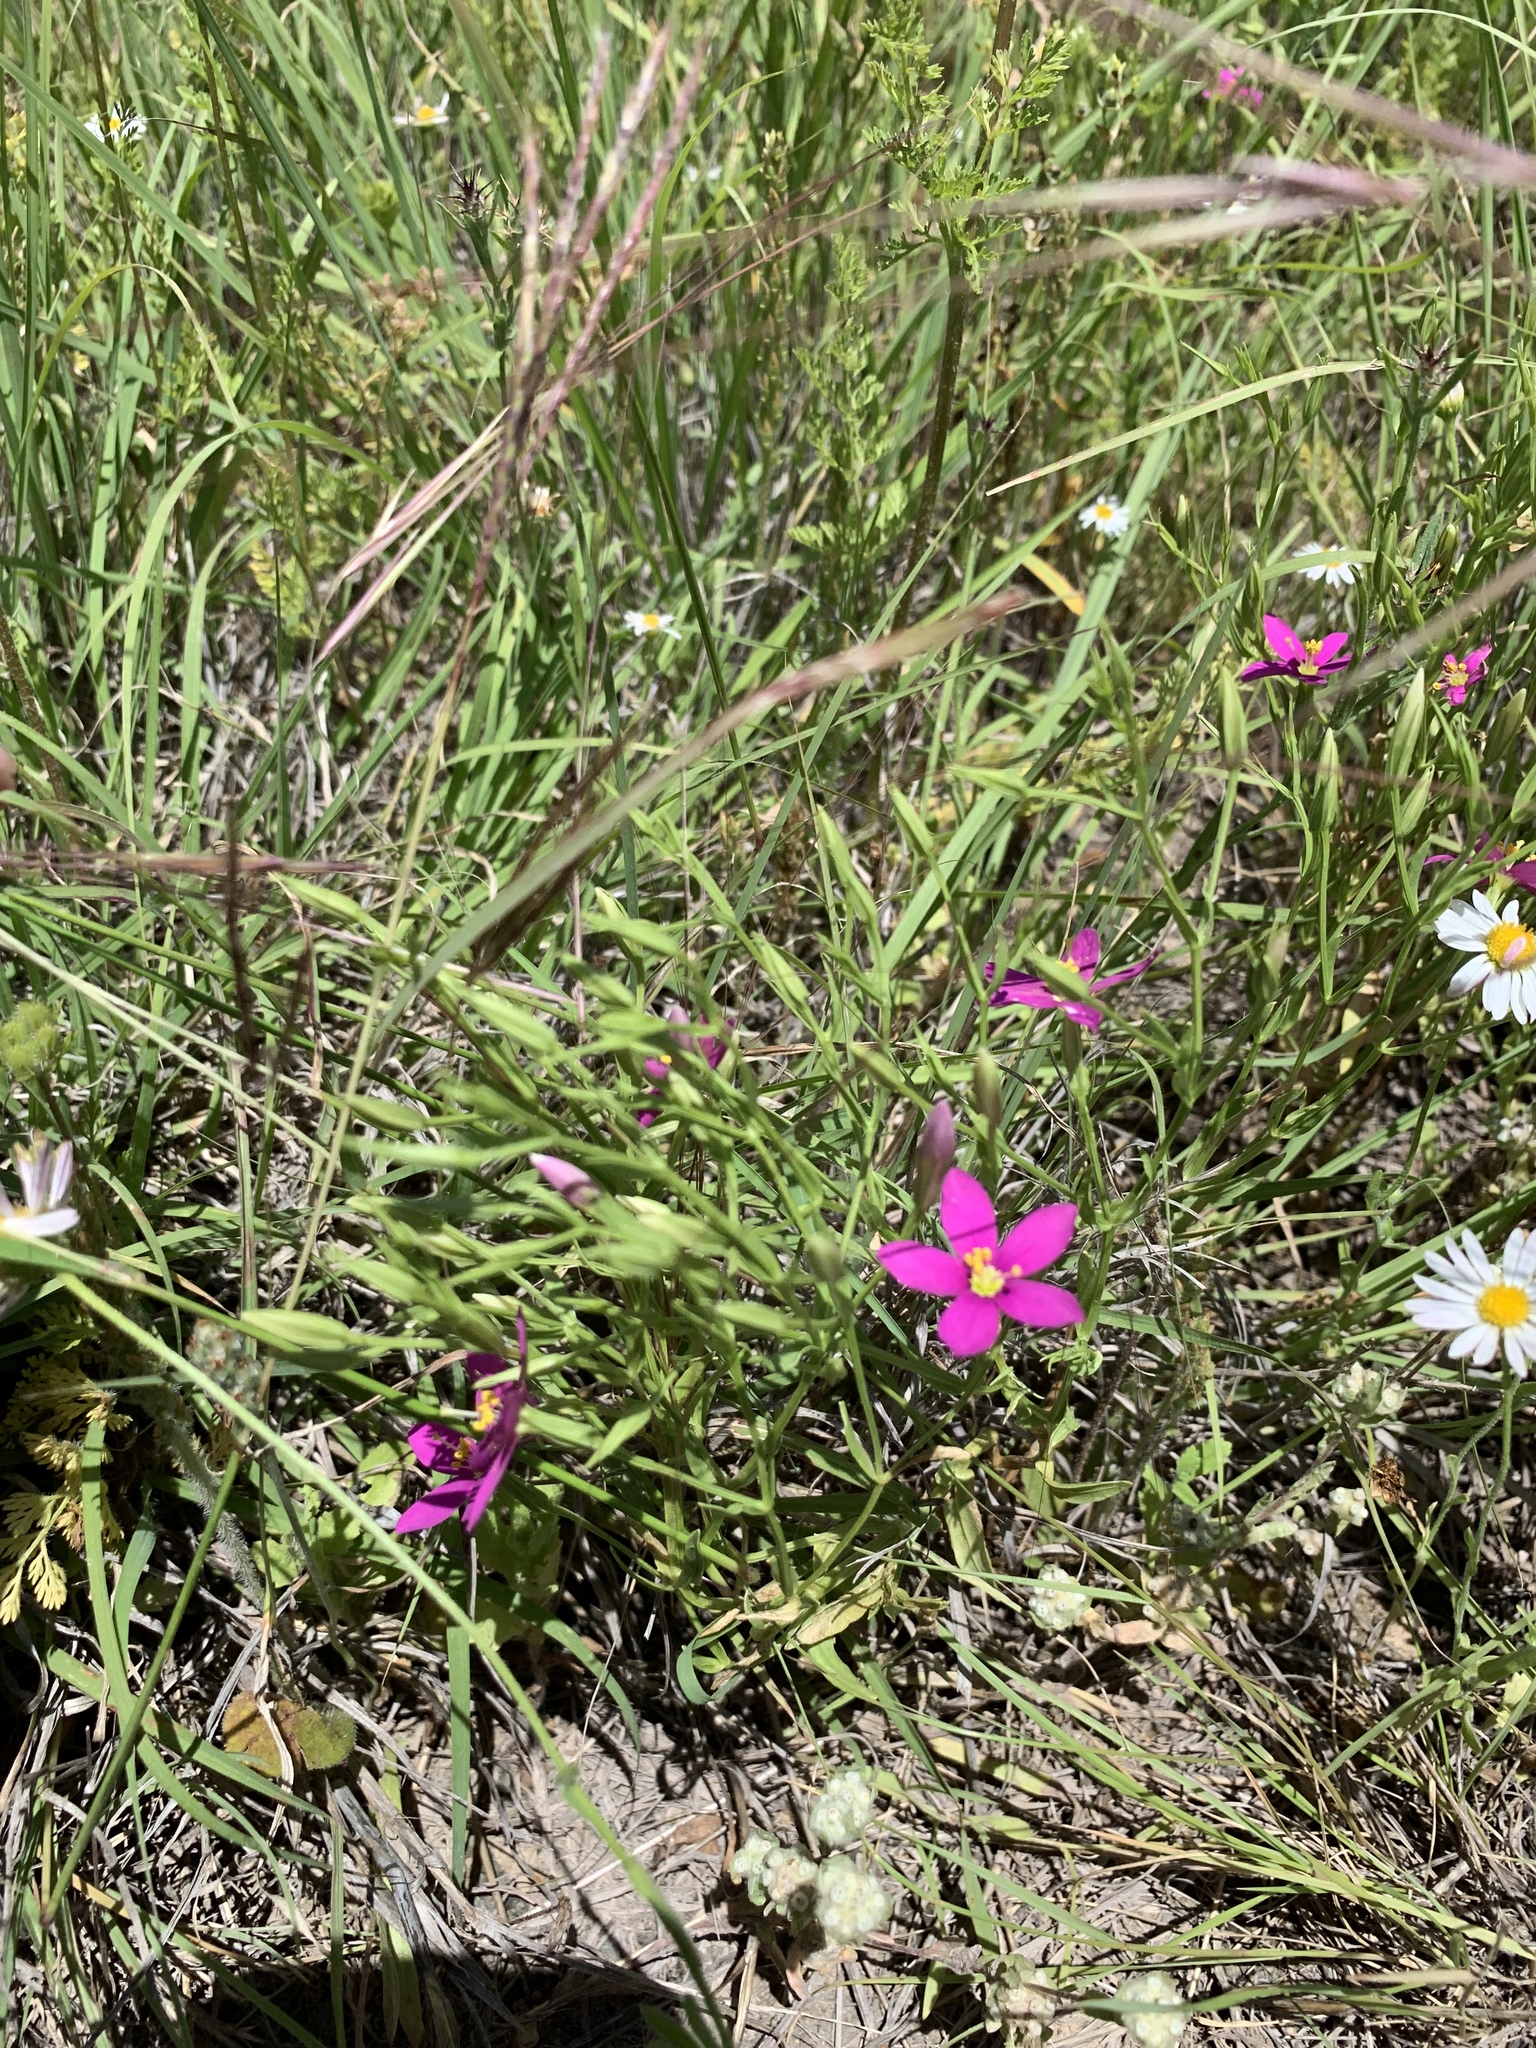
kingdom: Plantae
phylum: Tracheophyta
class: Magnoliopsida
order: Gentianales
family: Gentianaceae
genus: Zeltnera
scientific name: Zeltnera calycosa
